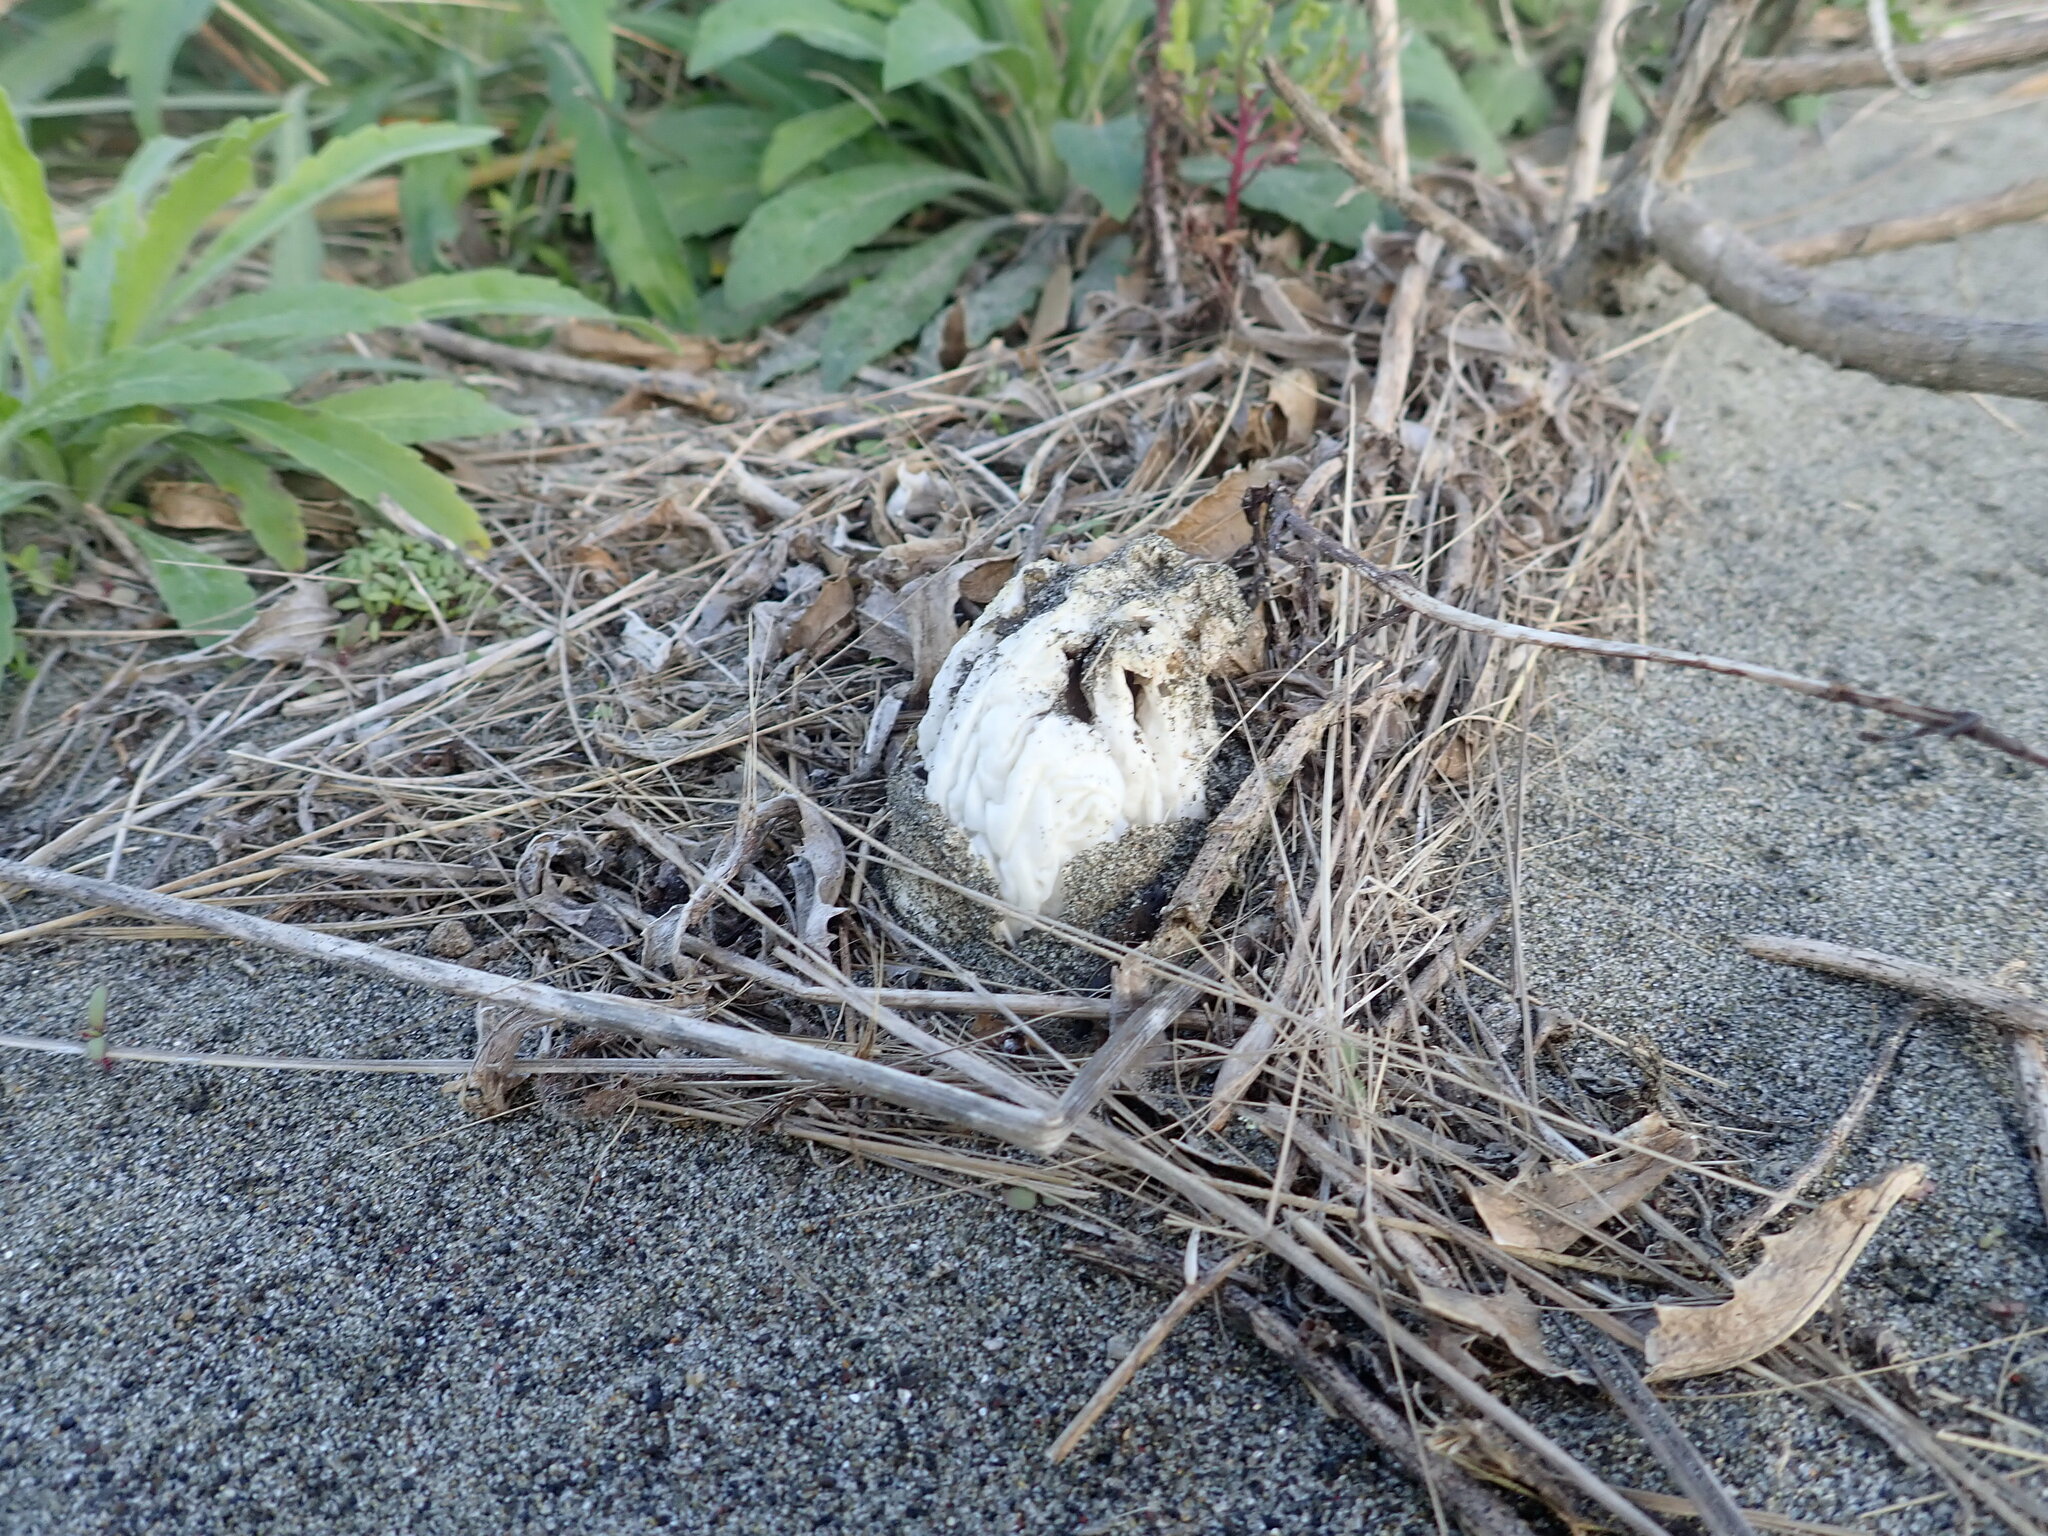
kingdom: Fungi
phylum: Basidiomycota
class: Agaricomycetes
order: Phallales
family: Phallaceae
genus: Ileodictyon
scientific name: Ileodictyon cibarium
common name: Basket fungus
